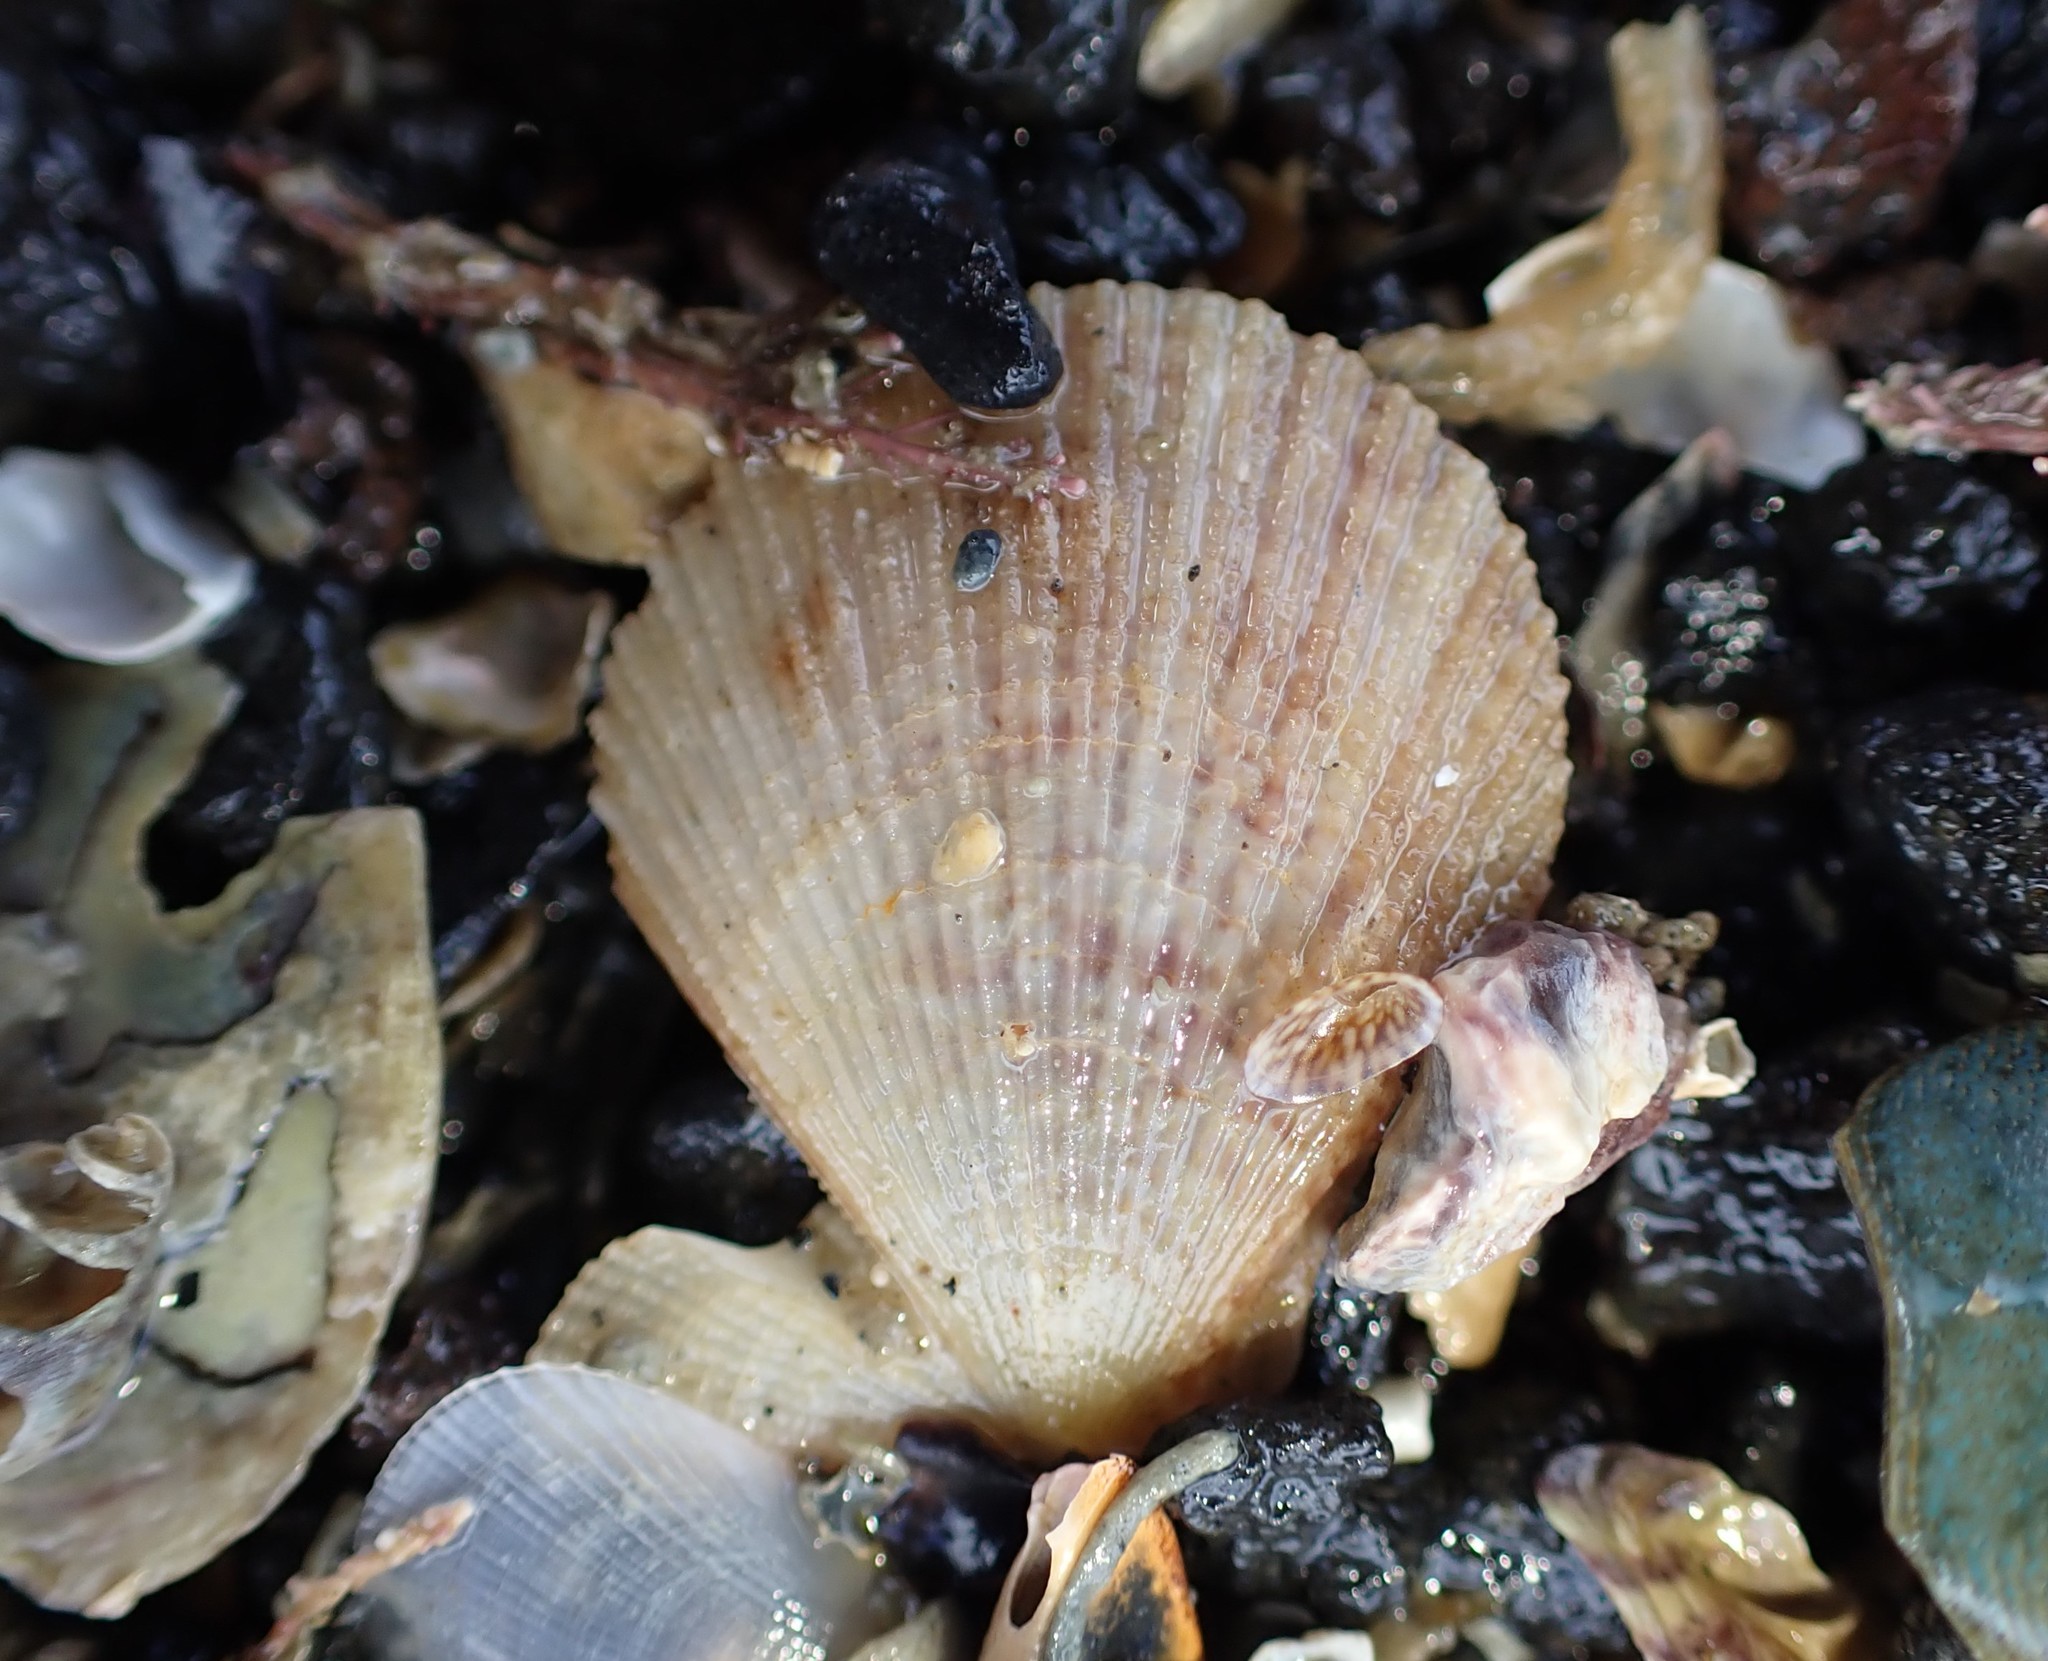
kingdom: Animalia
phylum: Mollusca
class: Bivalvia
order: Pectinida
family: Pectinidae
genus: Talochlamys
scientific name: Talochlamys zelandiae
